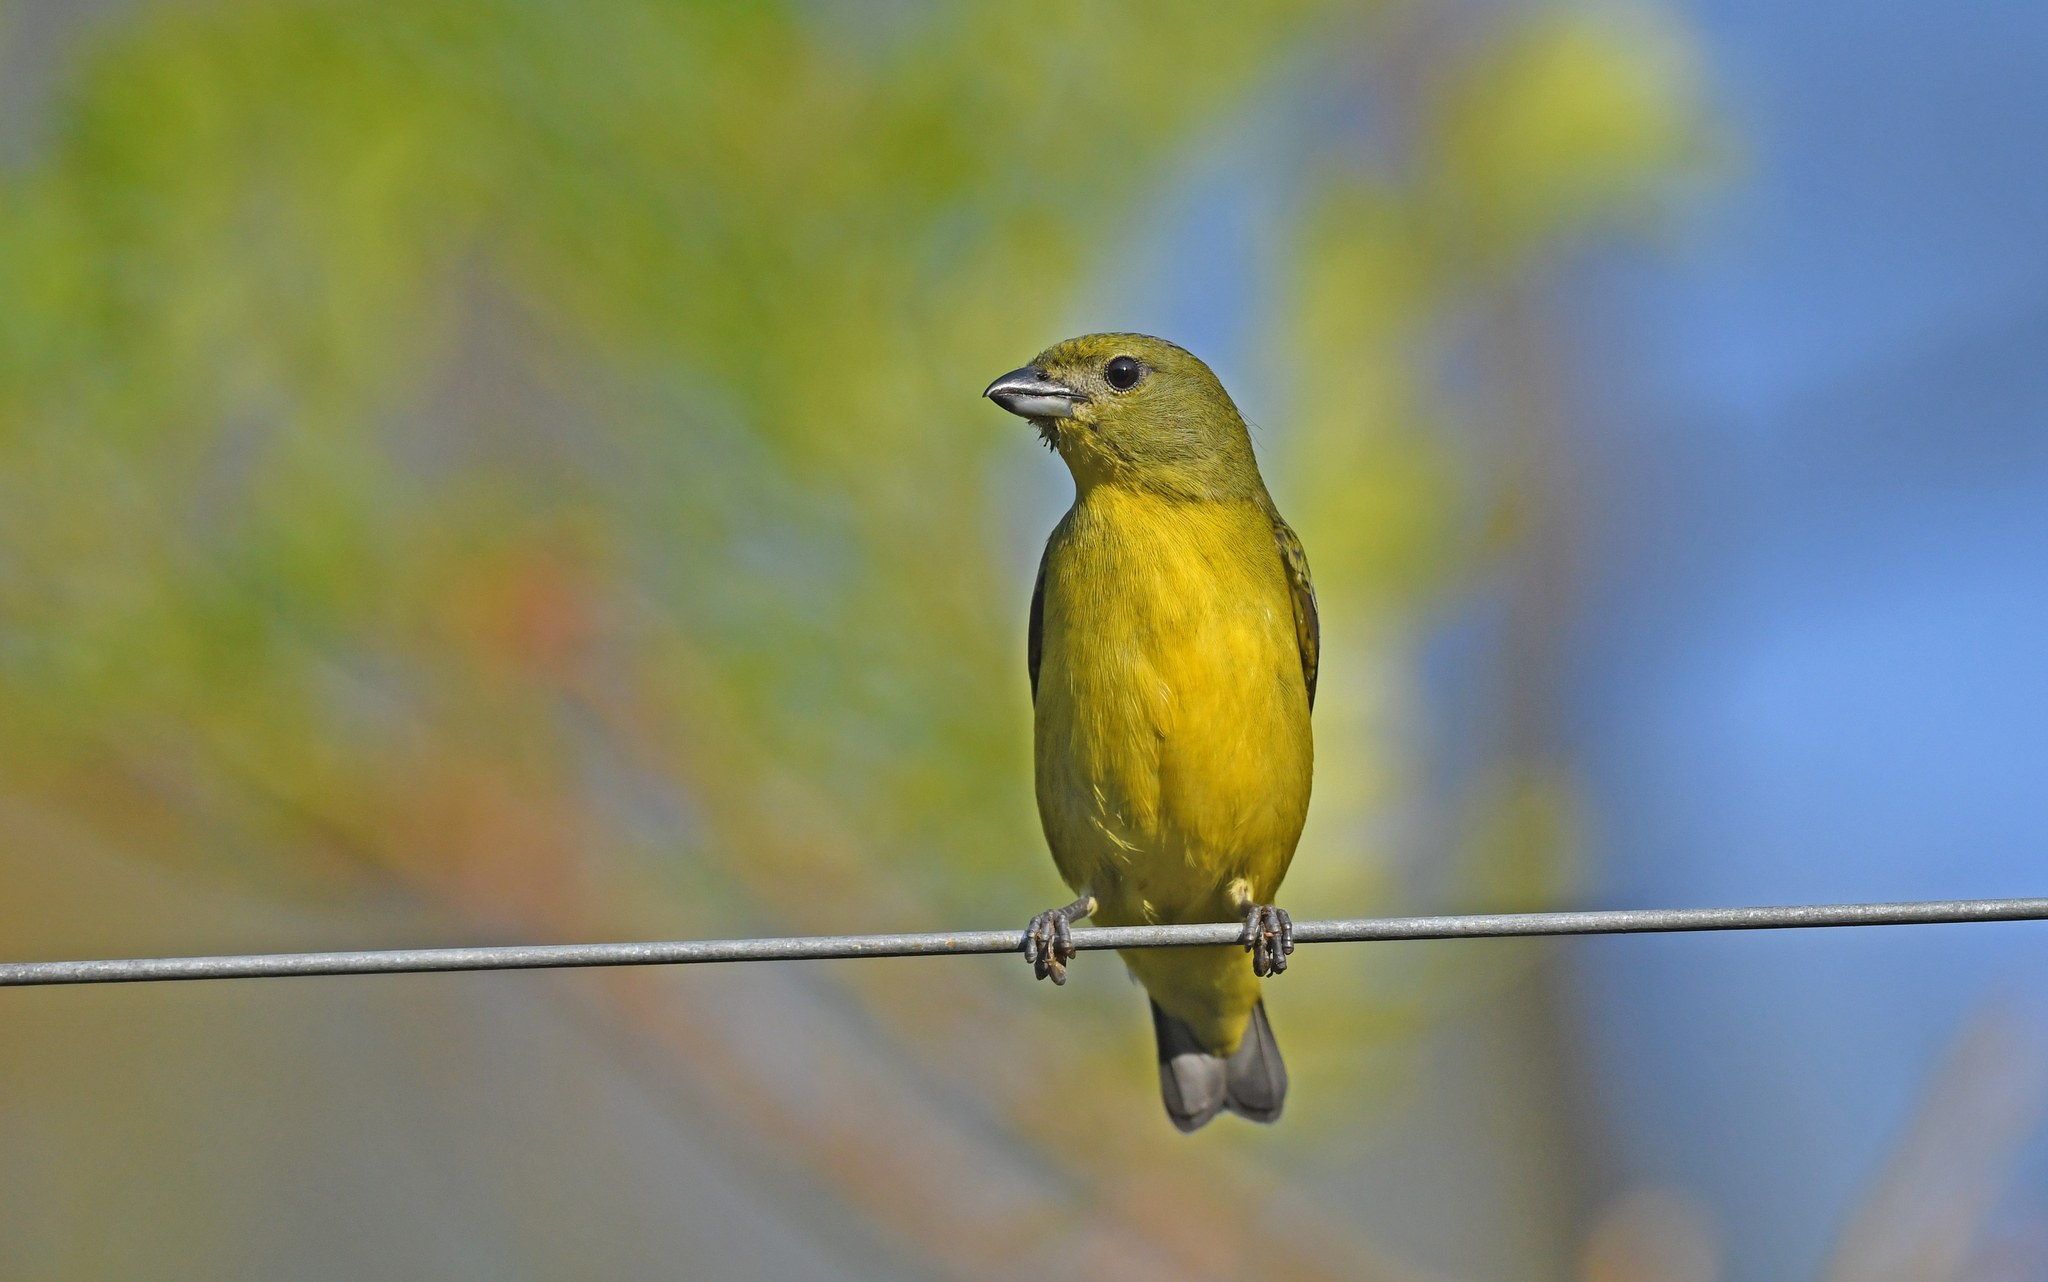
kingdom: Animalia
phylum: Chordata
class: Aves
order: Passeriformes
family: Fringillidae
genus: Euphonia
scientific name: Euphonia laniirostris
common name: Thick-billed euphonia
